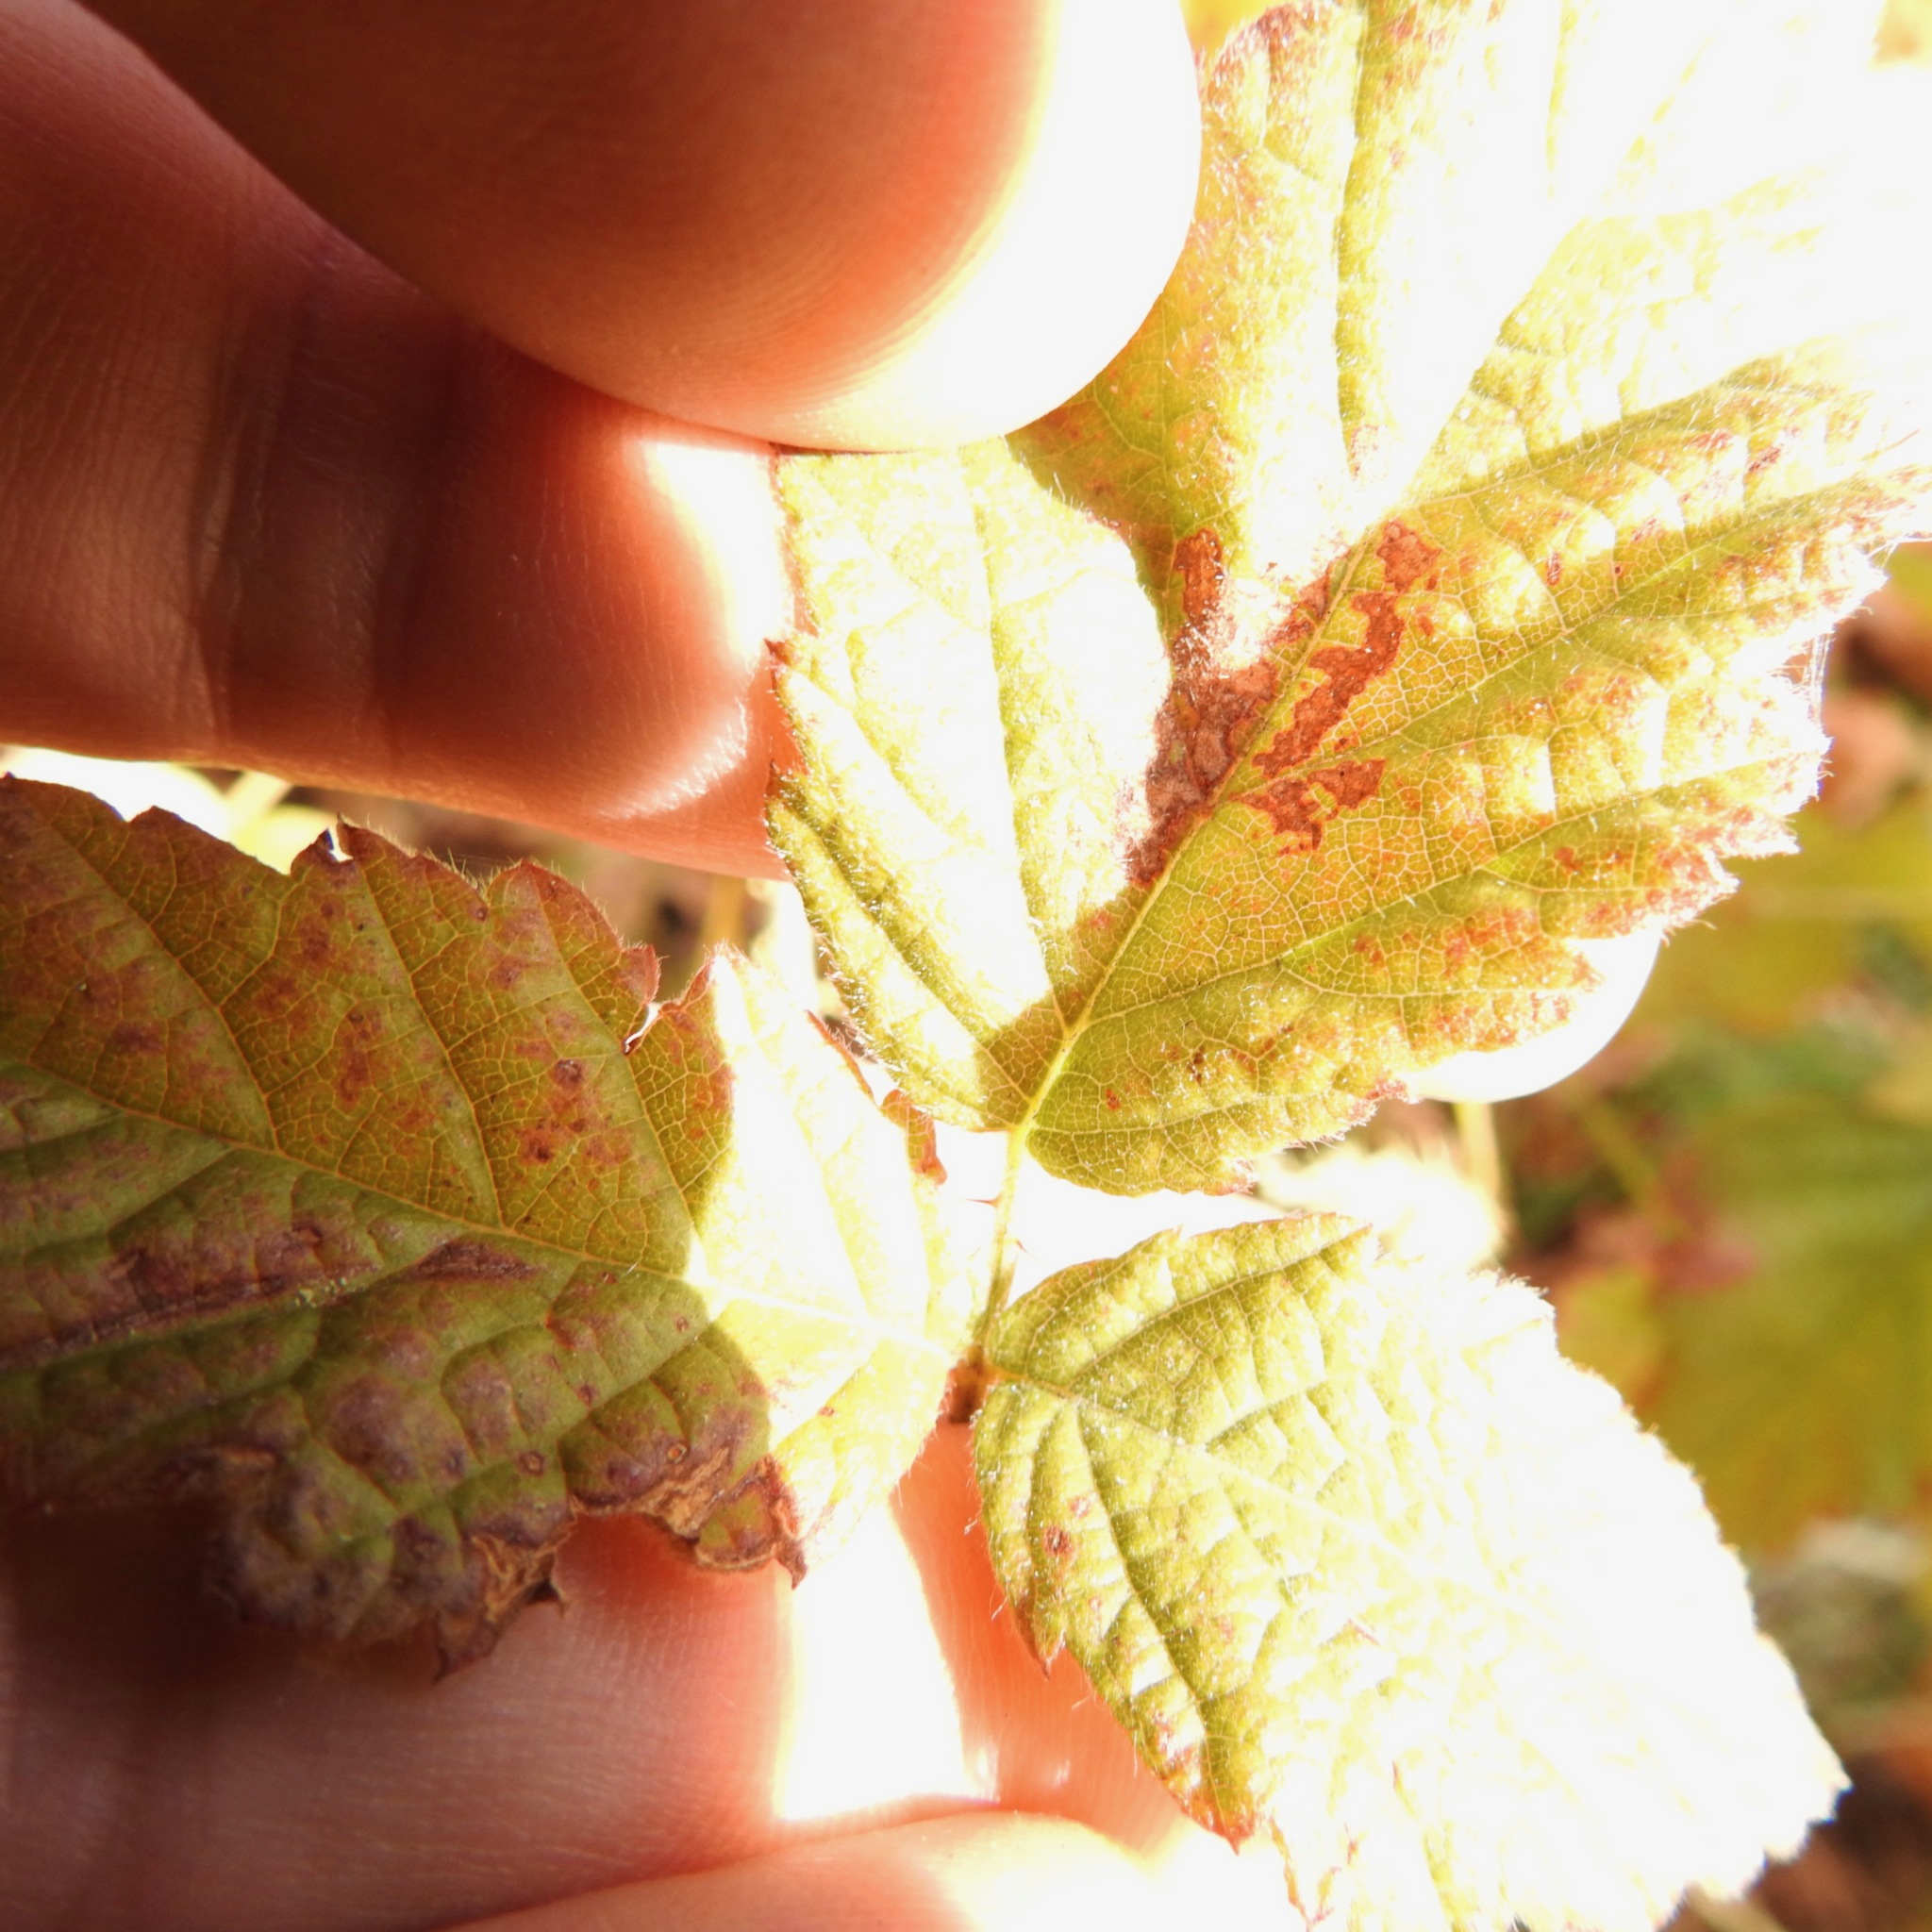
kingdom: Plantae
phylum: Tracheophyta
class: Magnoliopsida
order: Rosales
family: Rosaceae
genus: Rubus
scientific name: Rubus ursinus
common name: Pacific blackberry
